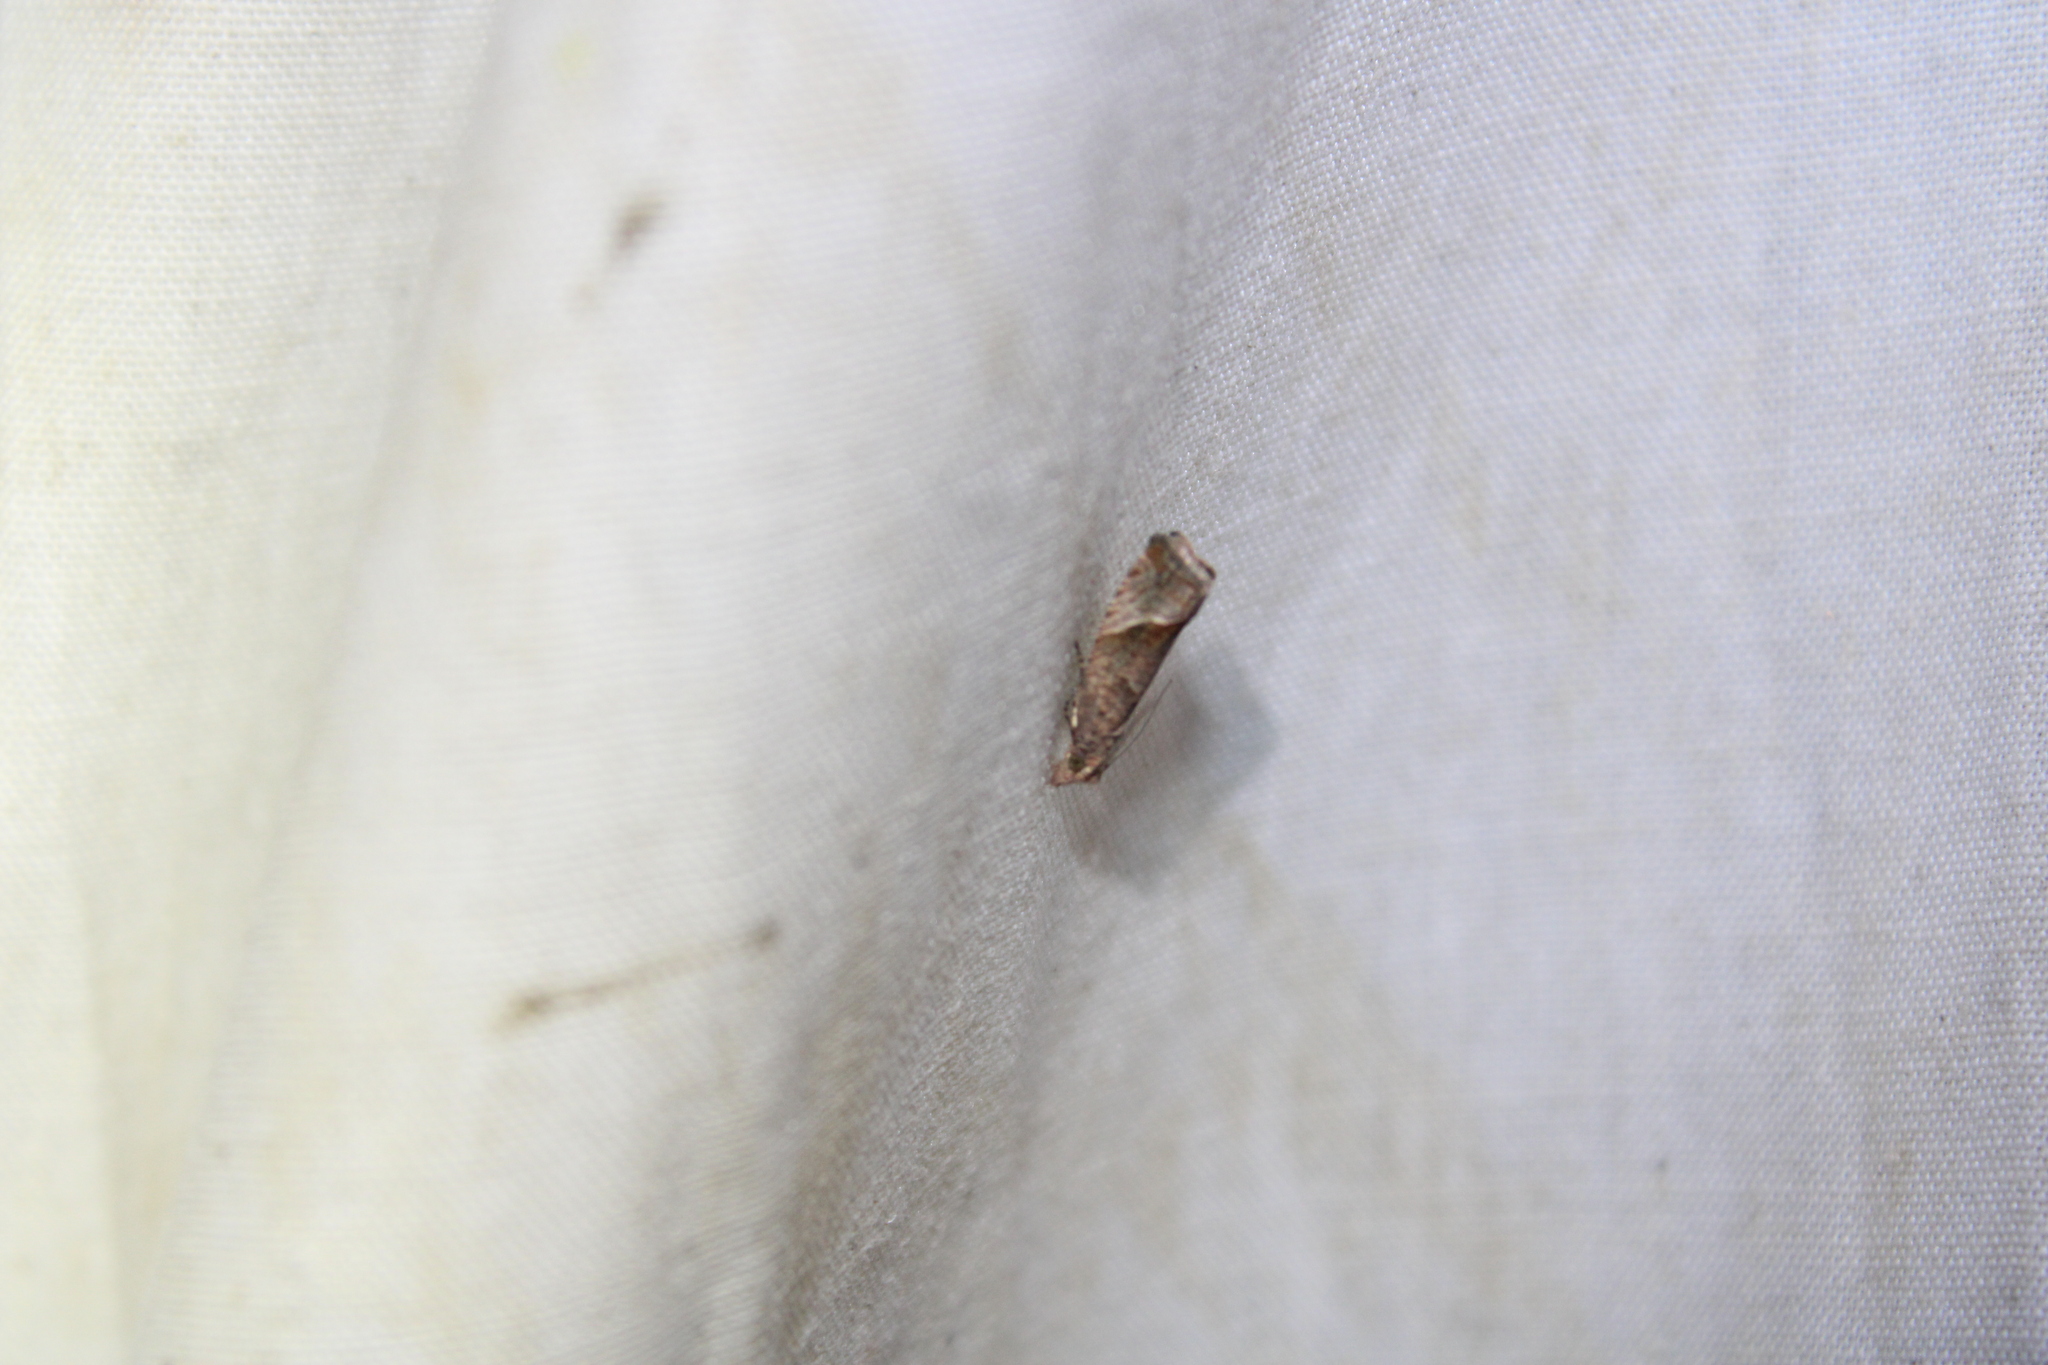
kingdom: Animalia
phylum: Arthropoda
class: Insecta
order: Lepidoptera
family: Tortricidae
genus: Pelochrista
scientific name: Pelochrista derelicta
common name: Derelict pelochrista moth
